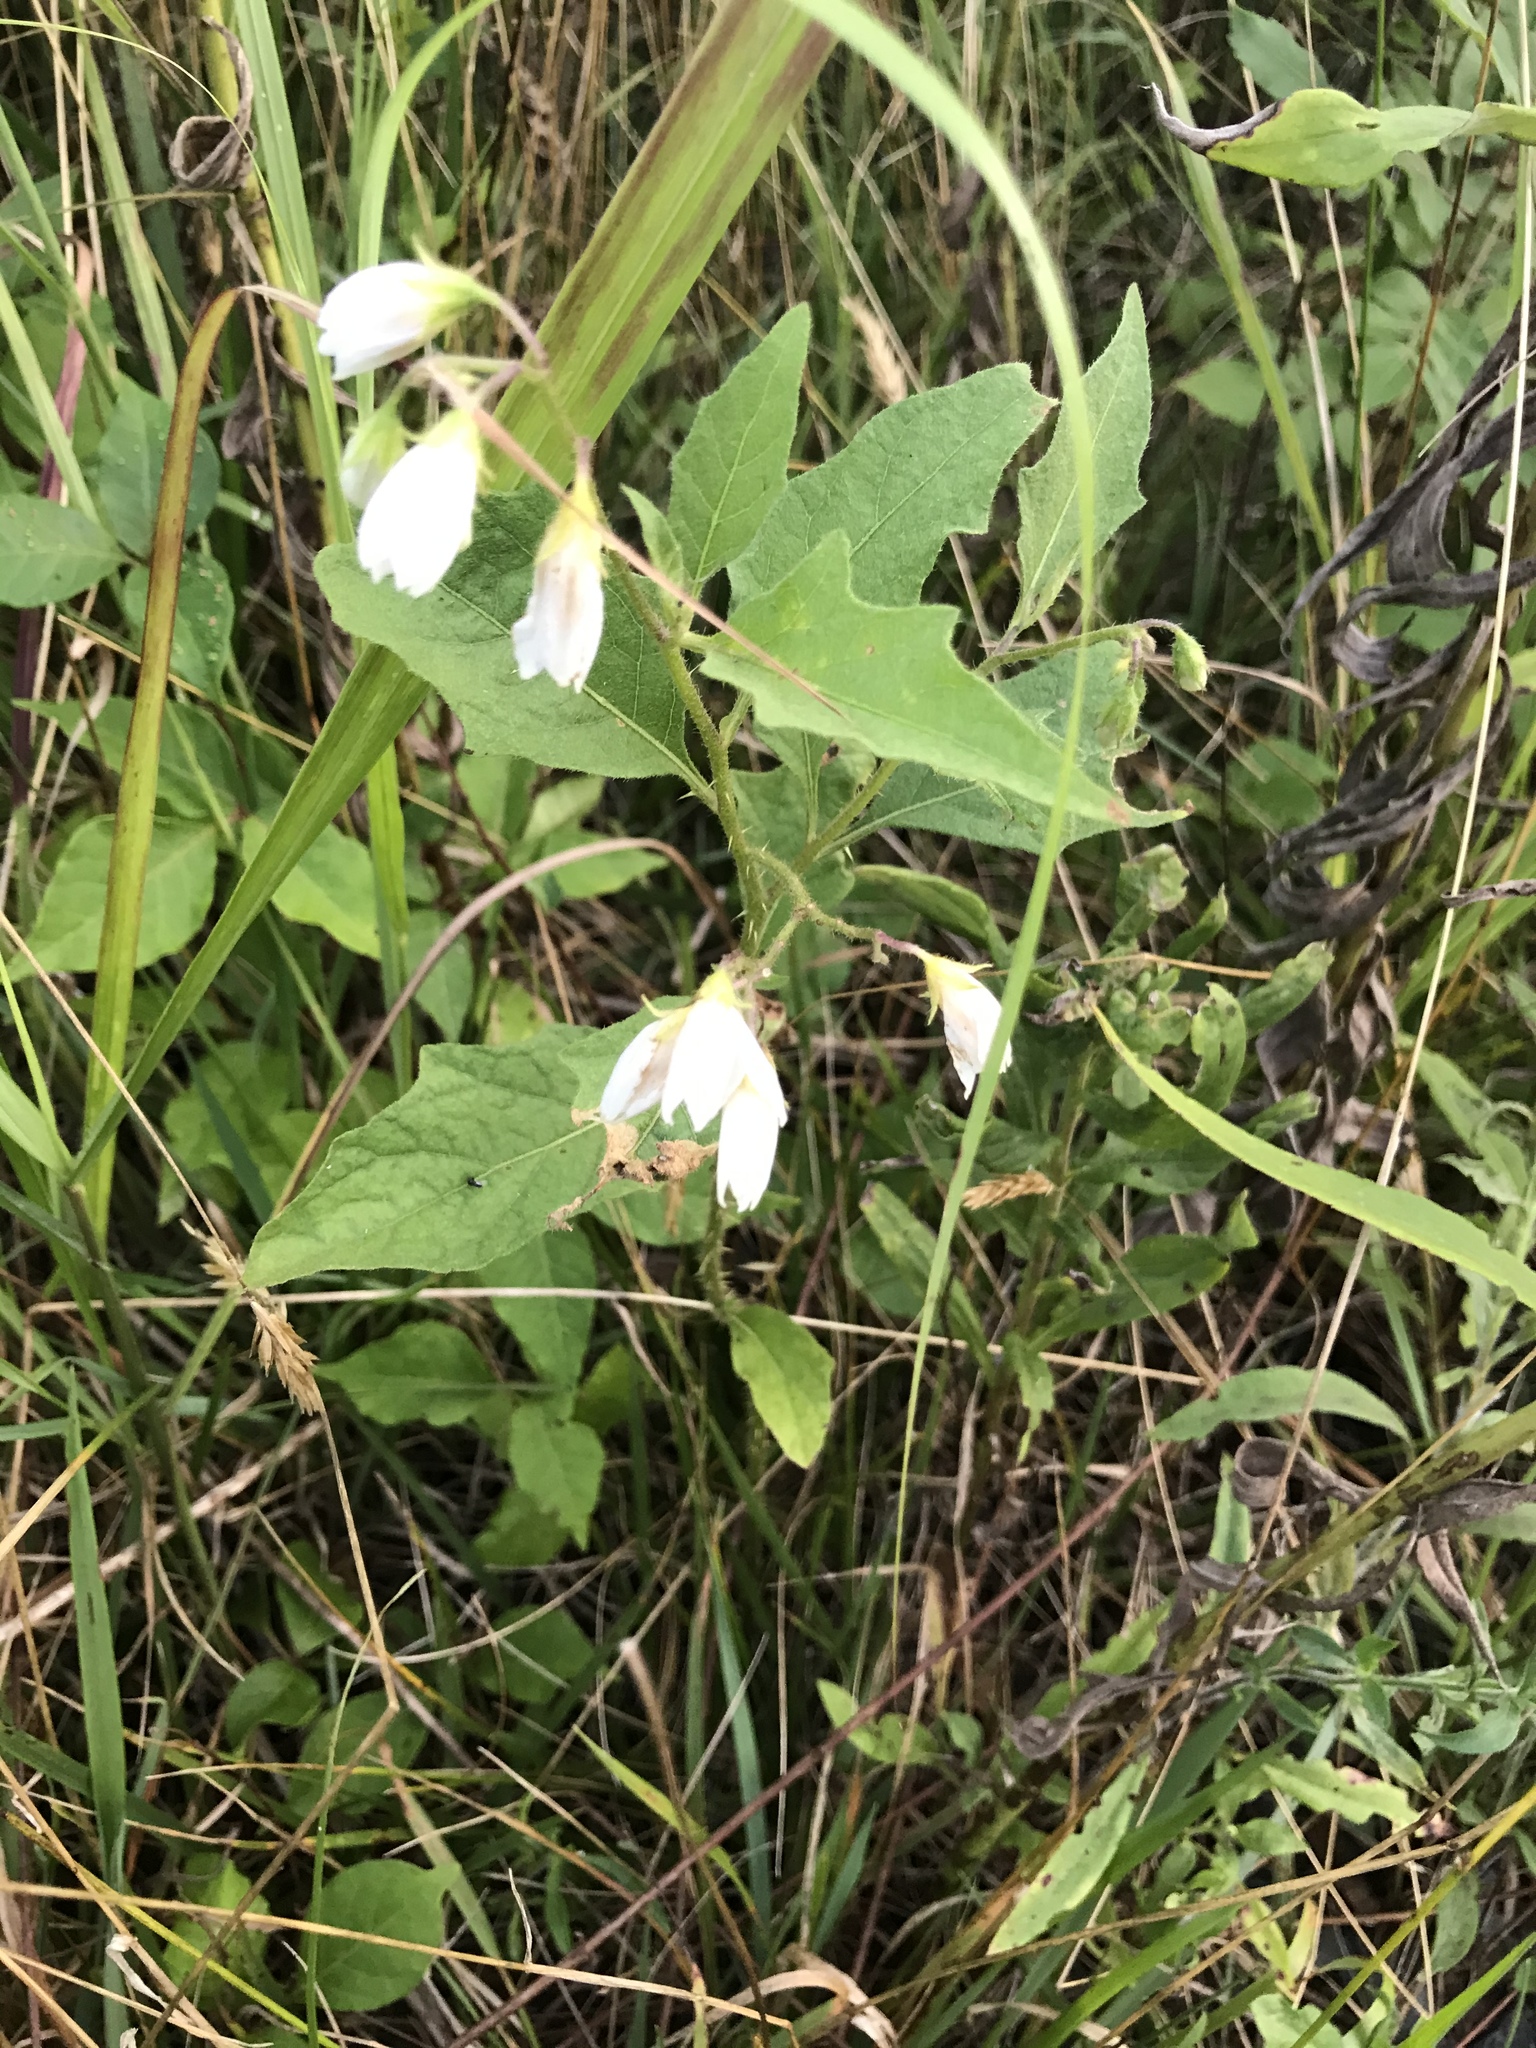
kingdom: Plantae
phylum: Tracheophyta
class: Magnoliopsida
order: Solanales
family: Solanaceae
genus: Solanum
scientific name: Solanum carolinense
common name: Horse-nettle
